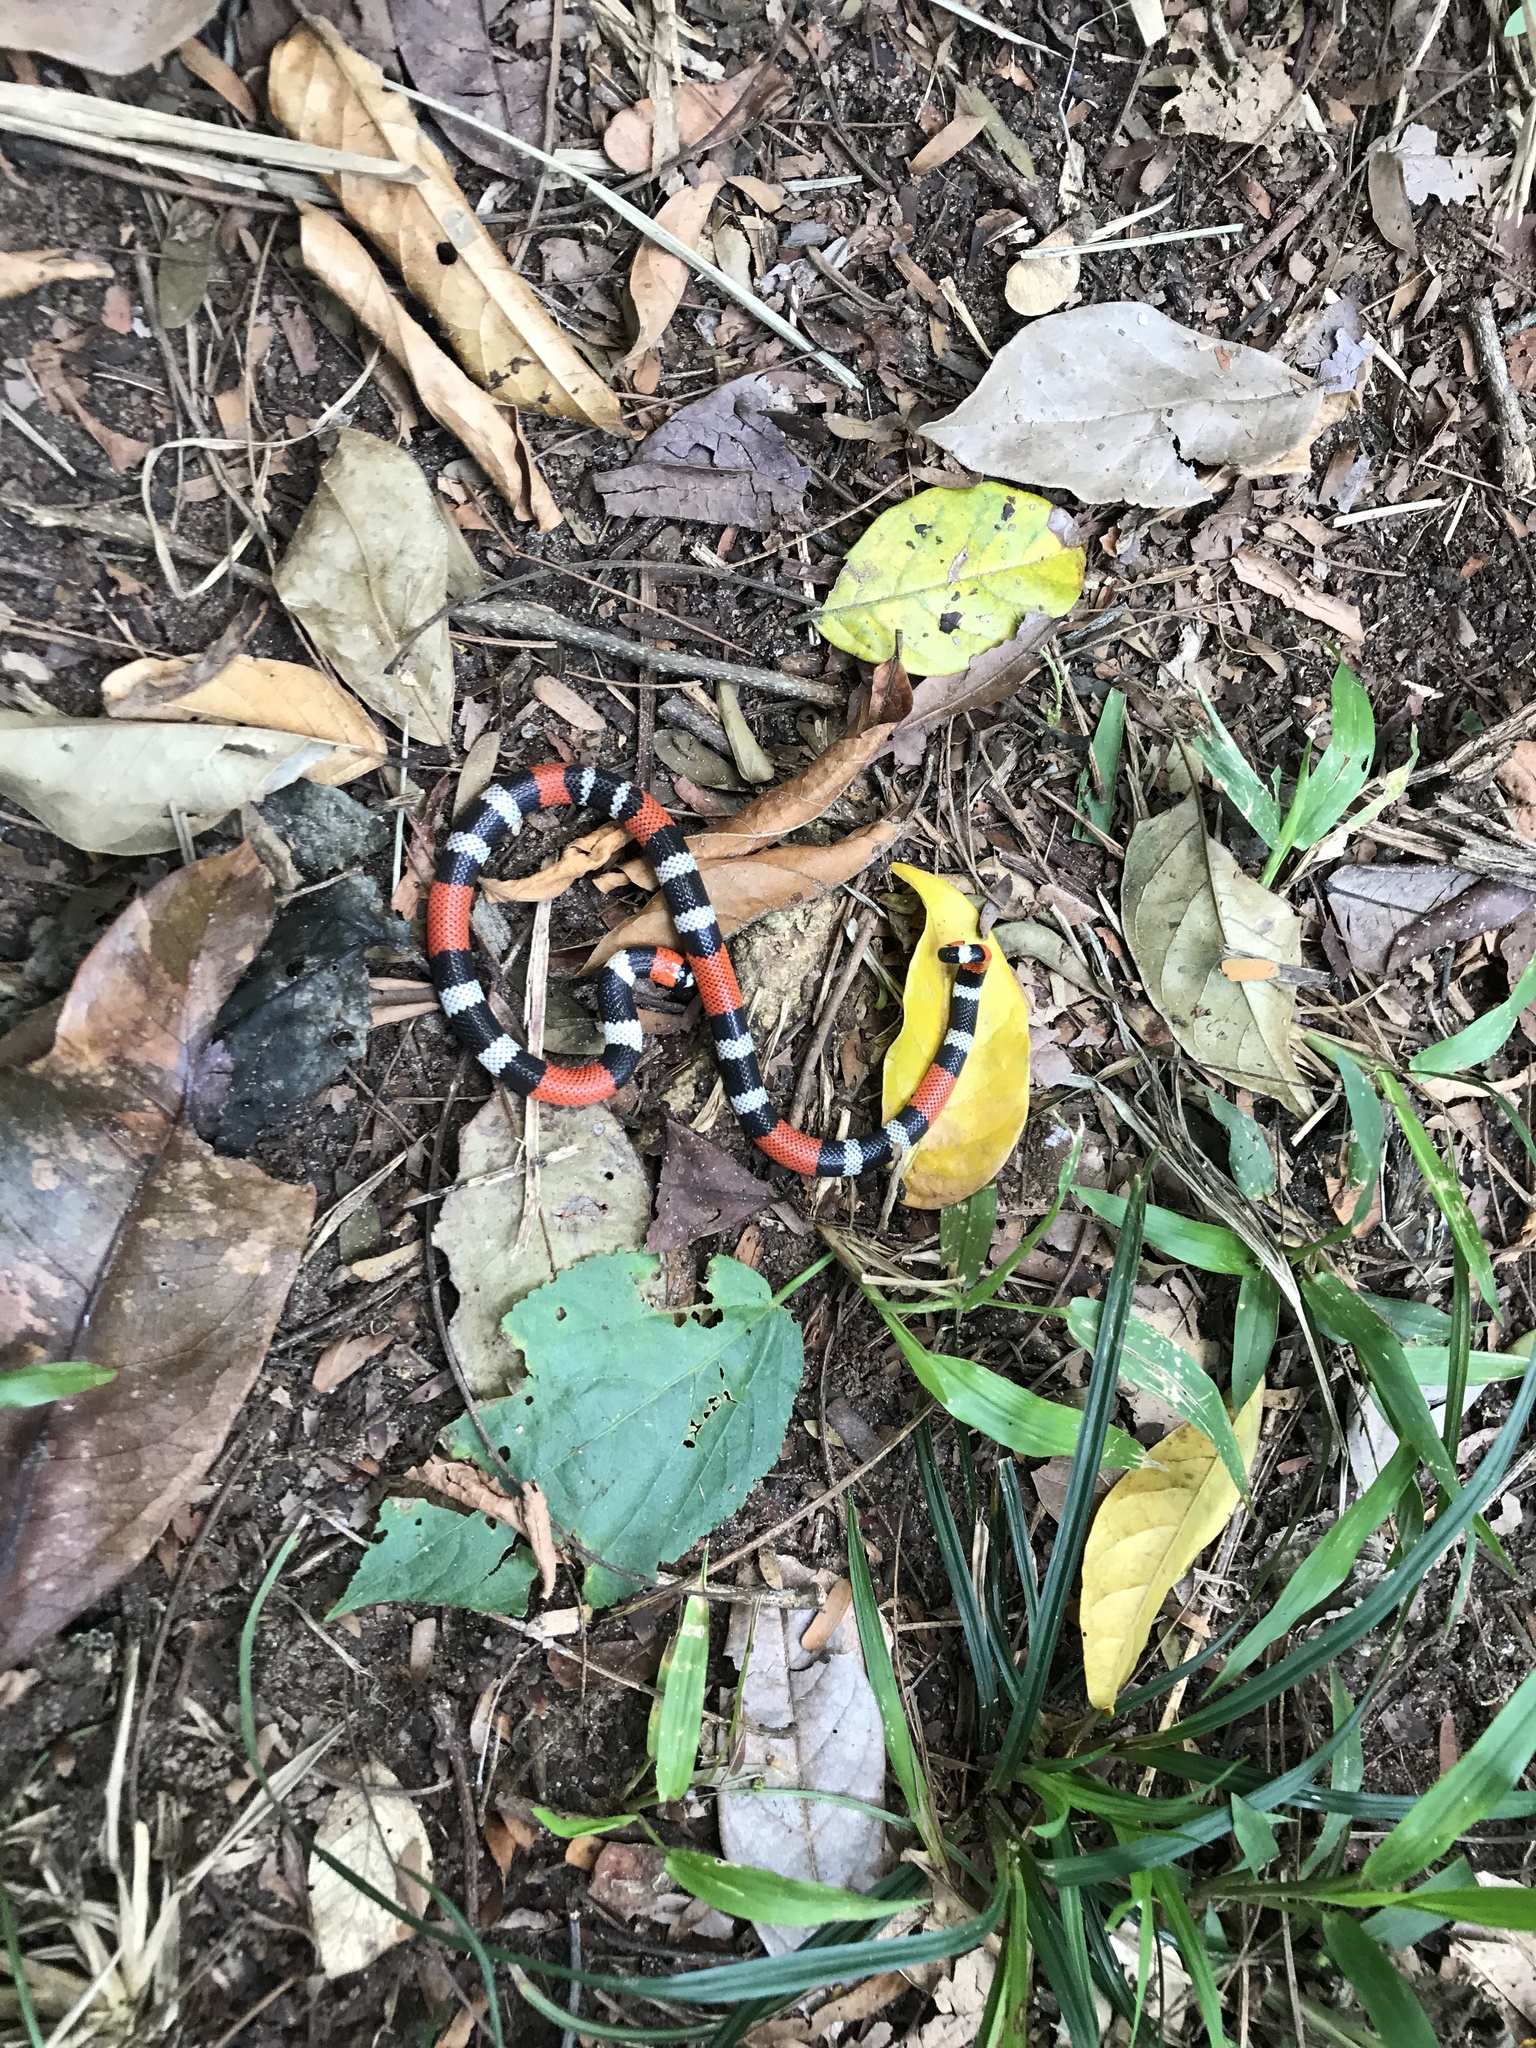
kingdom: Animalia
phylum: Chordata
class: Squamata
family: Elapidae
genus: Micrurus
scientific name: Micrurus ibiboboca
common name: Caatinga coral snake
